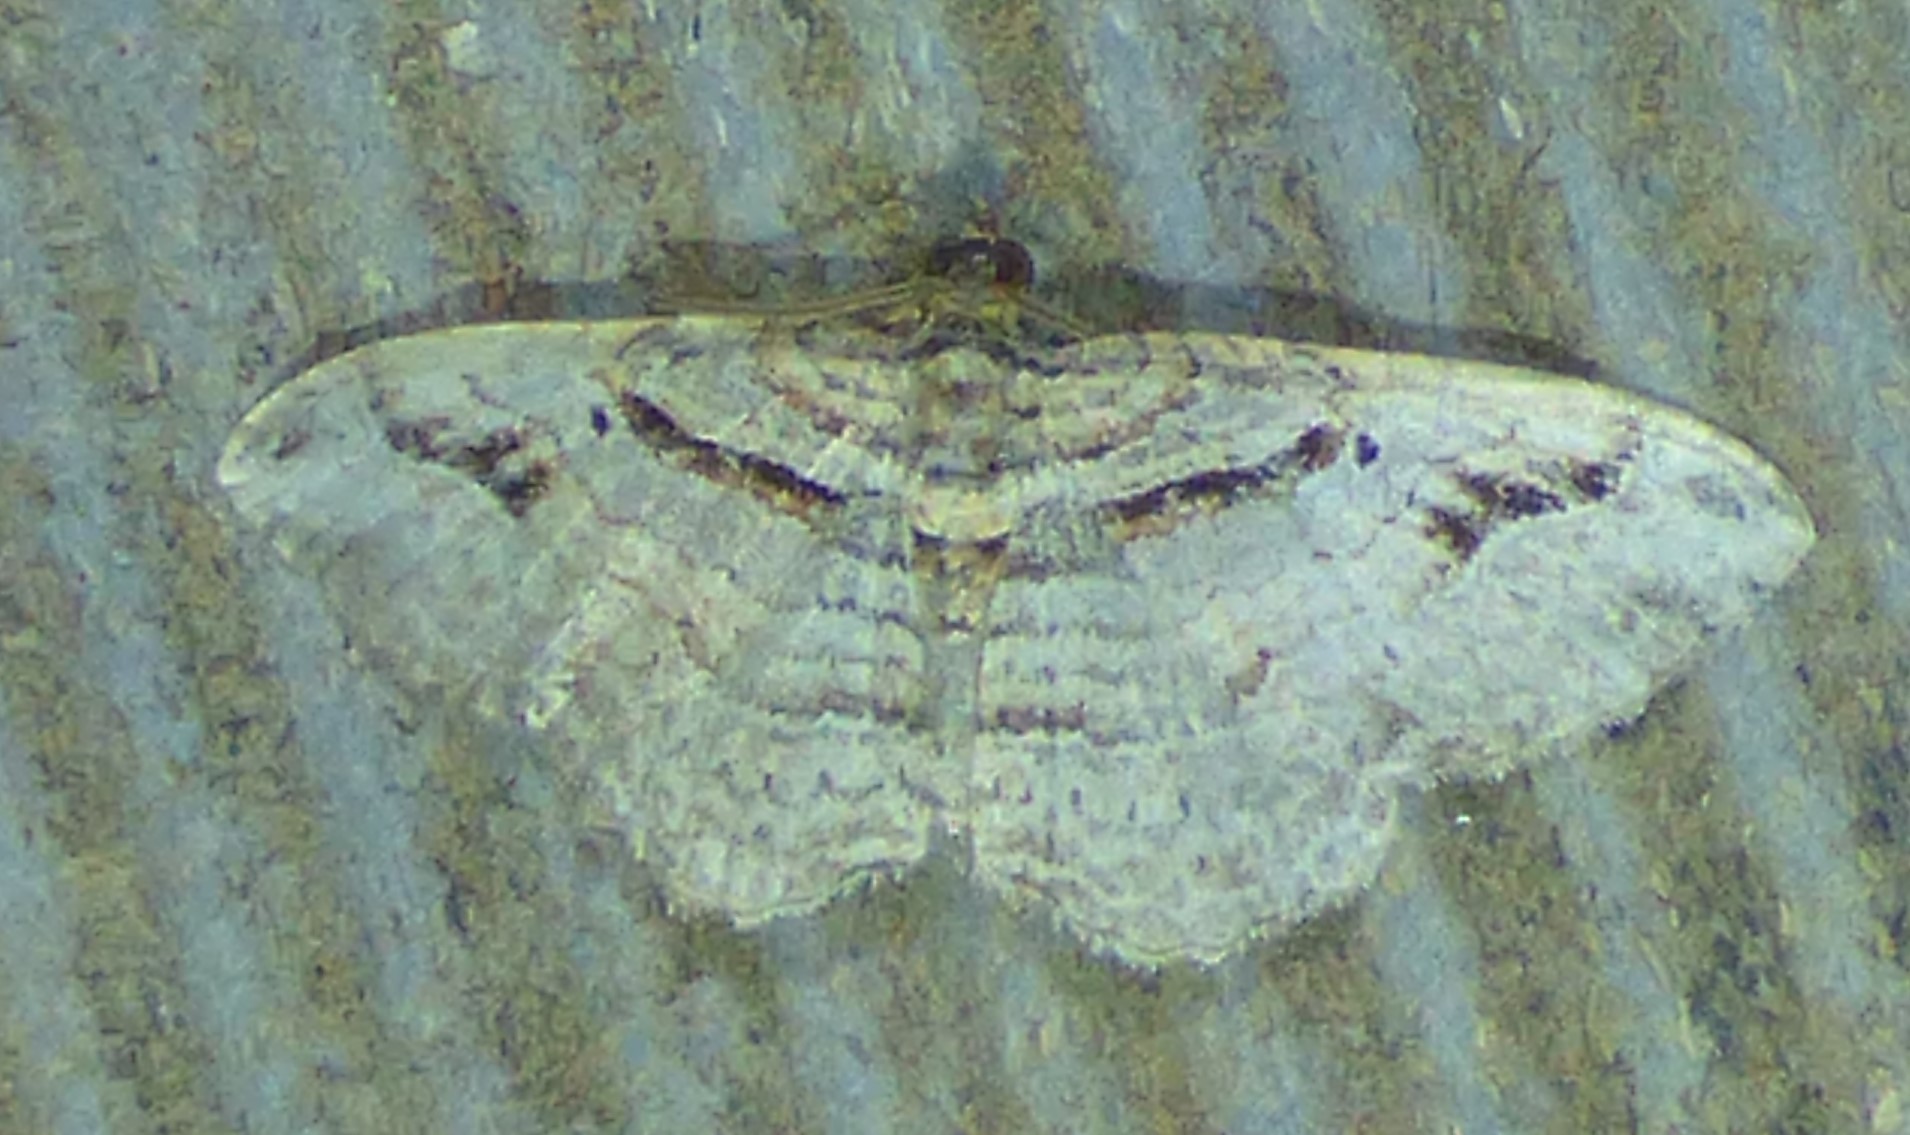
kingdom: Animalia
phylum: Arthropoda
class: Insecta
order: Lepidoptera
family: Geometridae
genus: Costaconvexa
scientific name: Costaconvexa centrostrigaria
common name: Bent-line carpet
